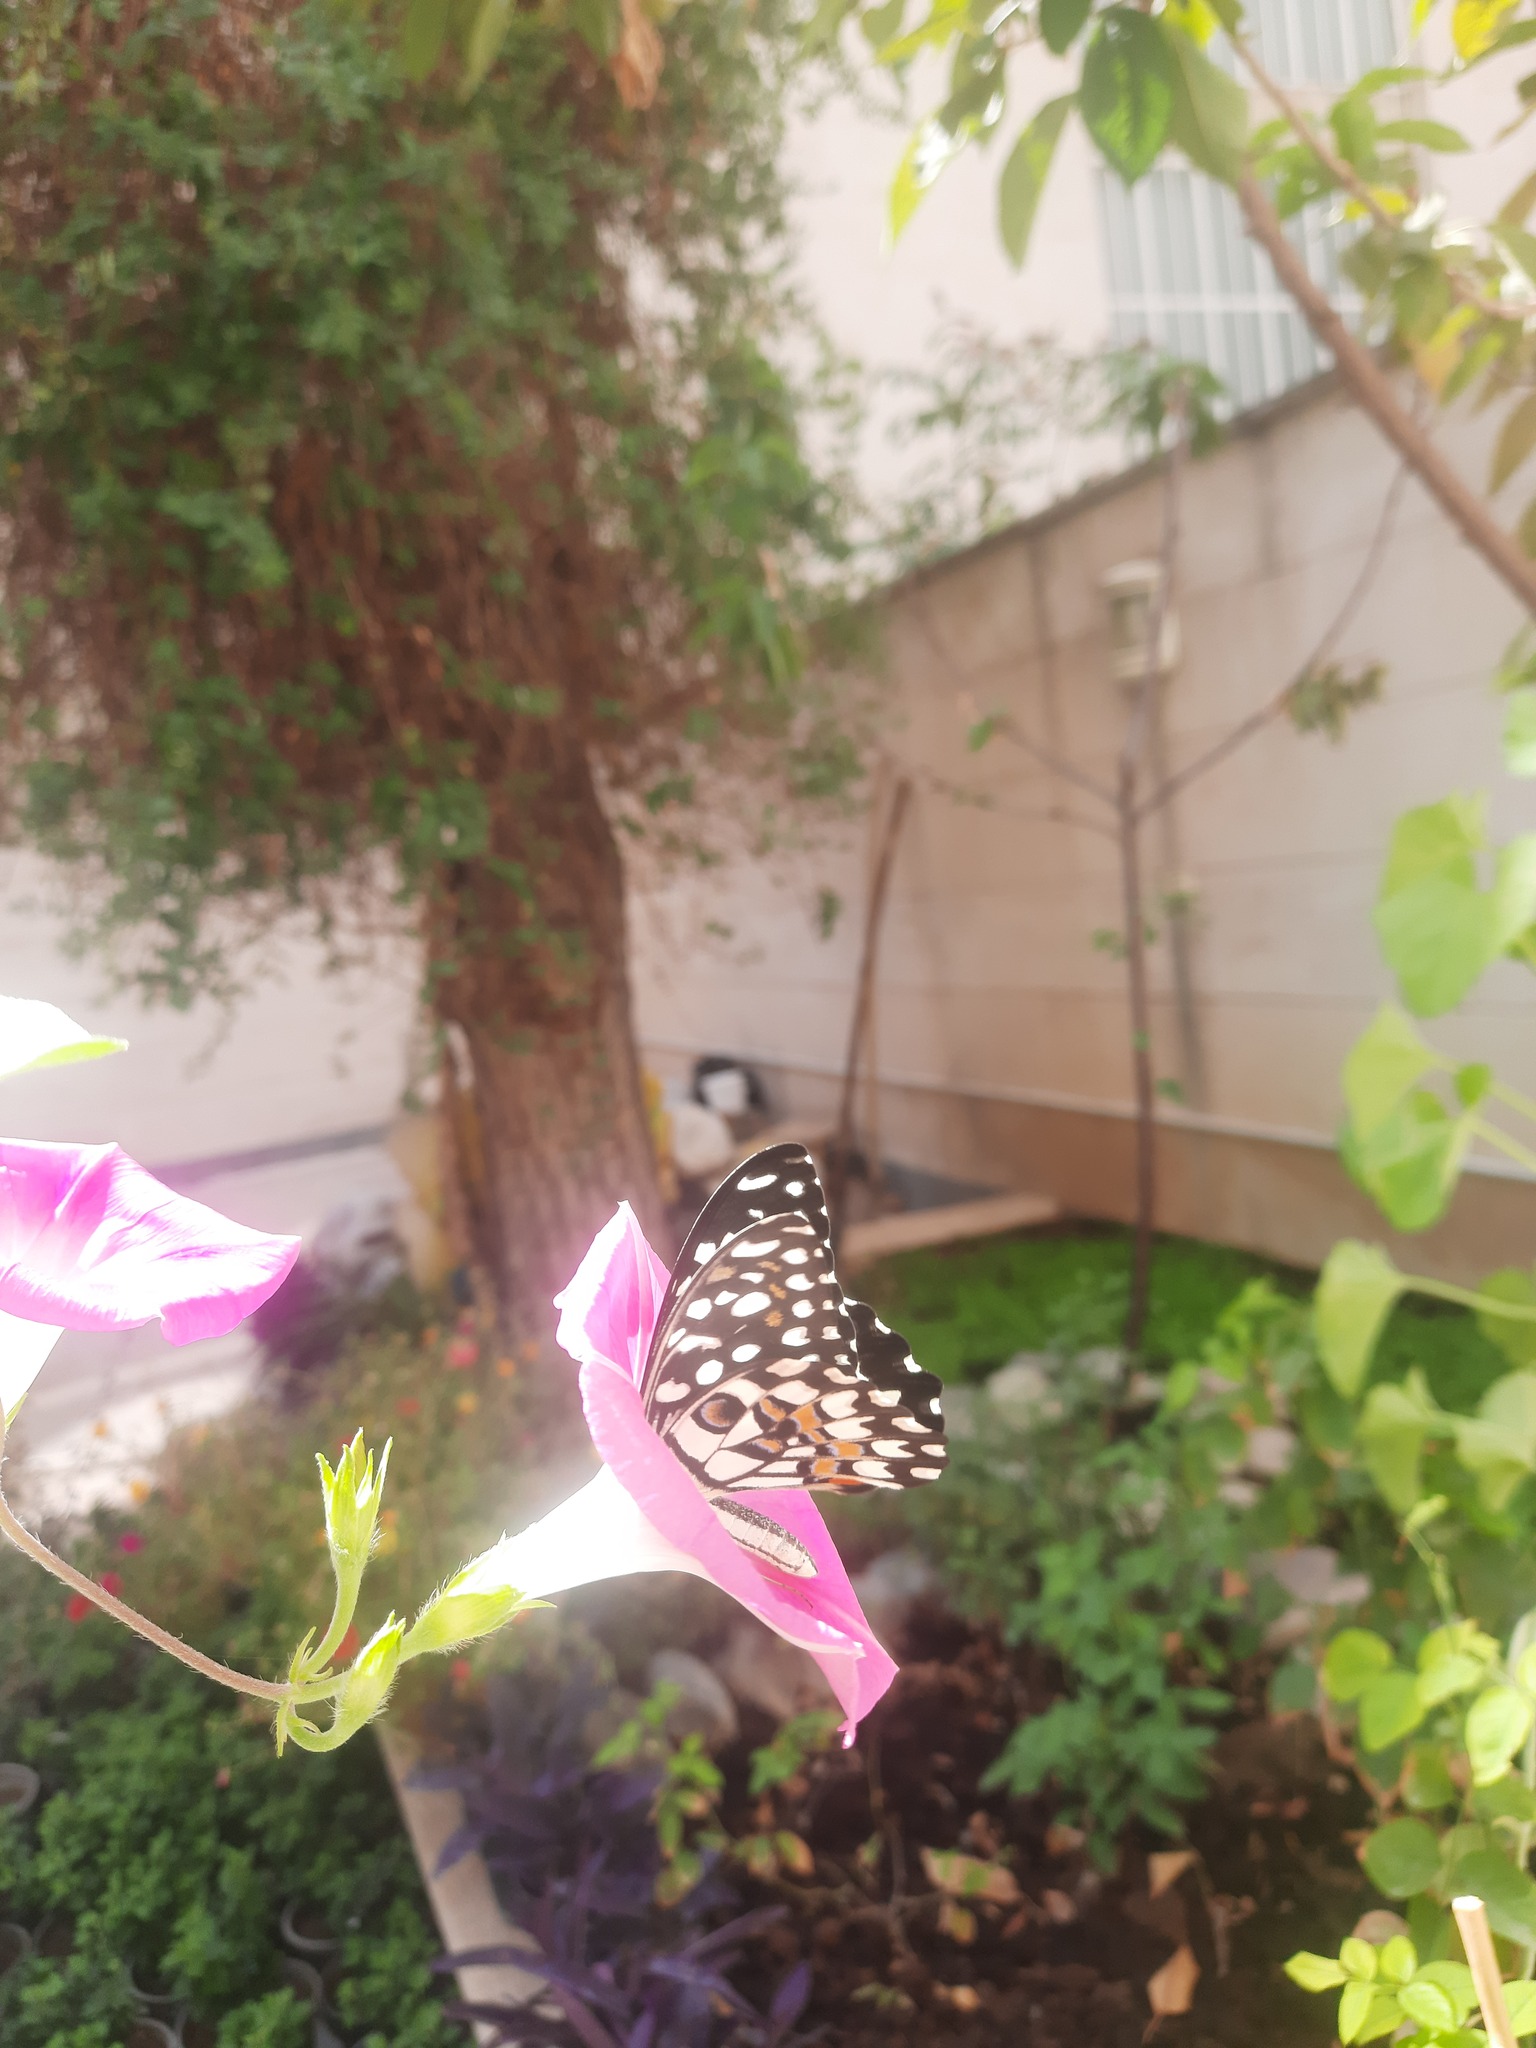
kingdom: Animalia
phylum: Arthropoda
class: Insecta
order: Lepidoptera
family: Papilionidae
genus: Papilio
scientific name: Papilio demoleus
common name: Lime butterfly
